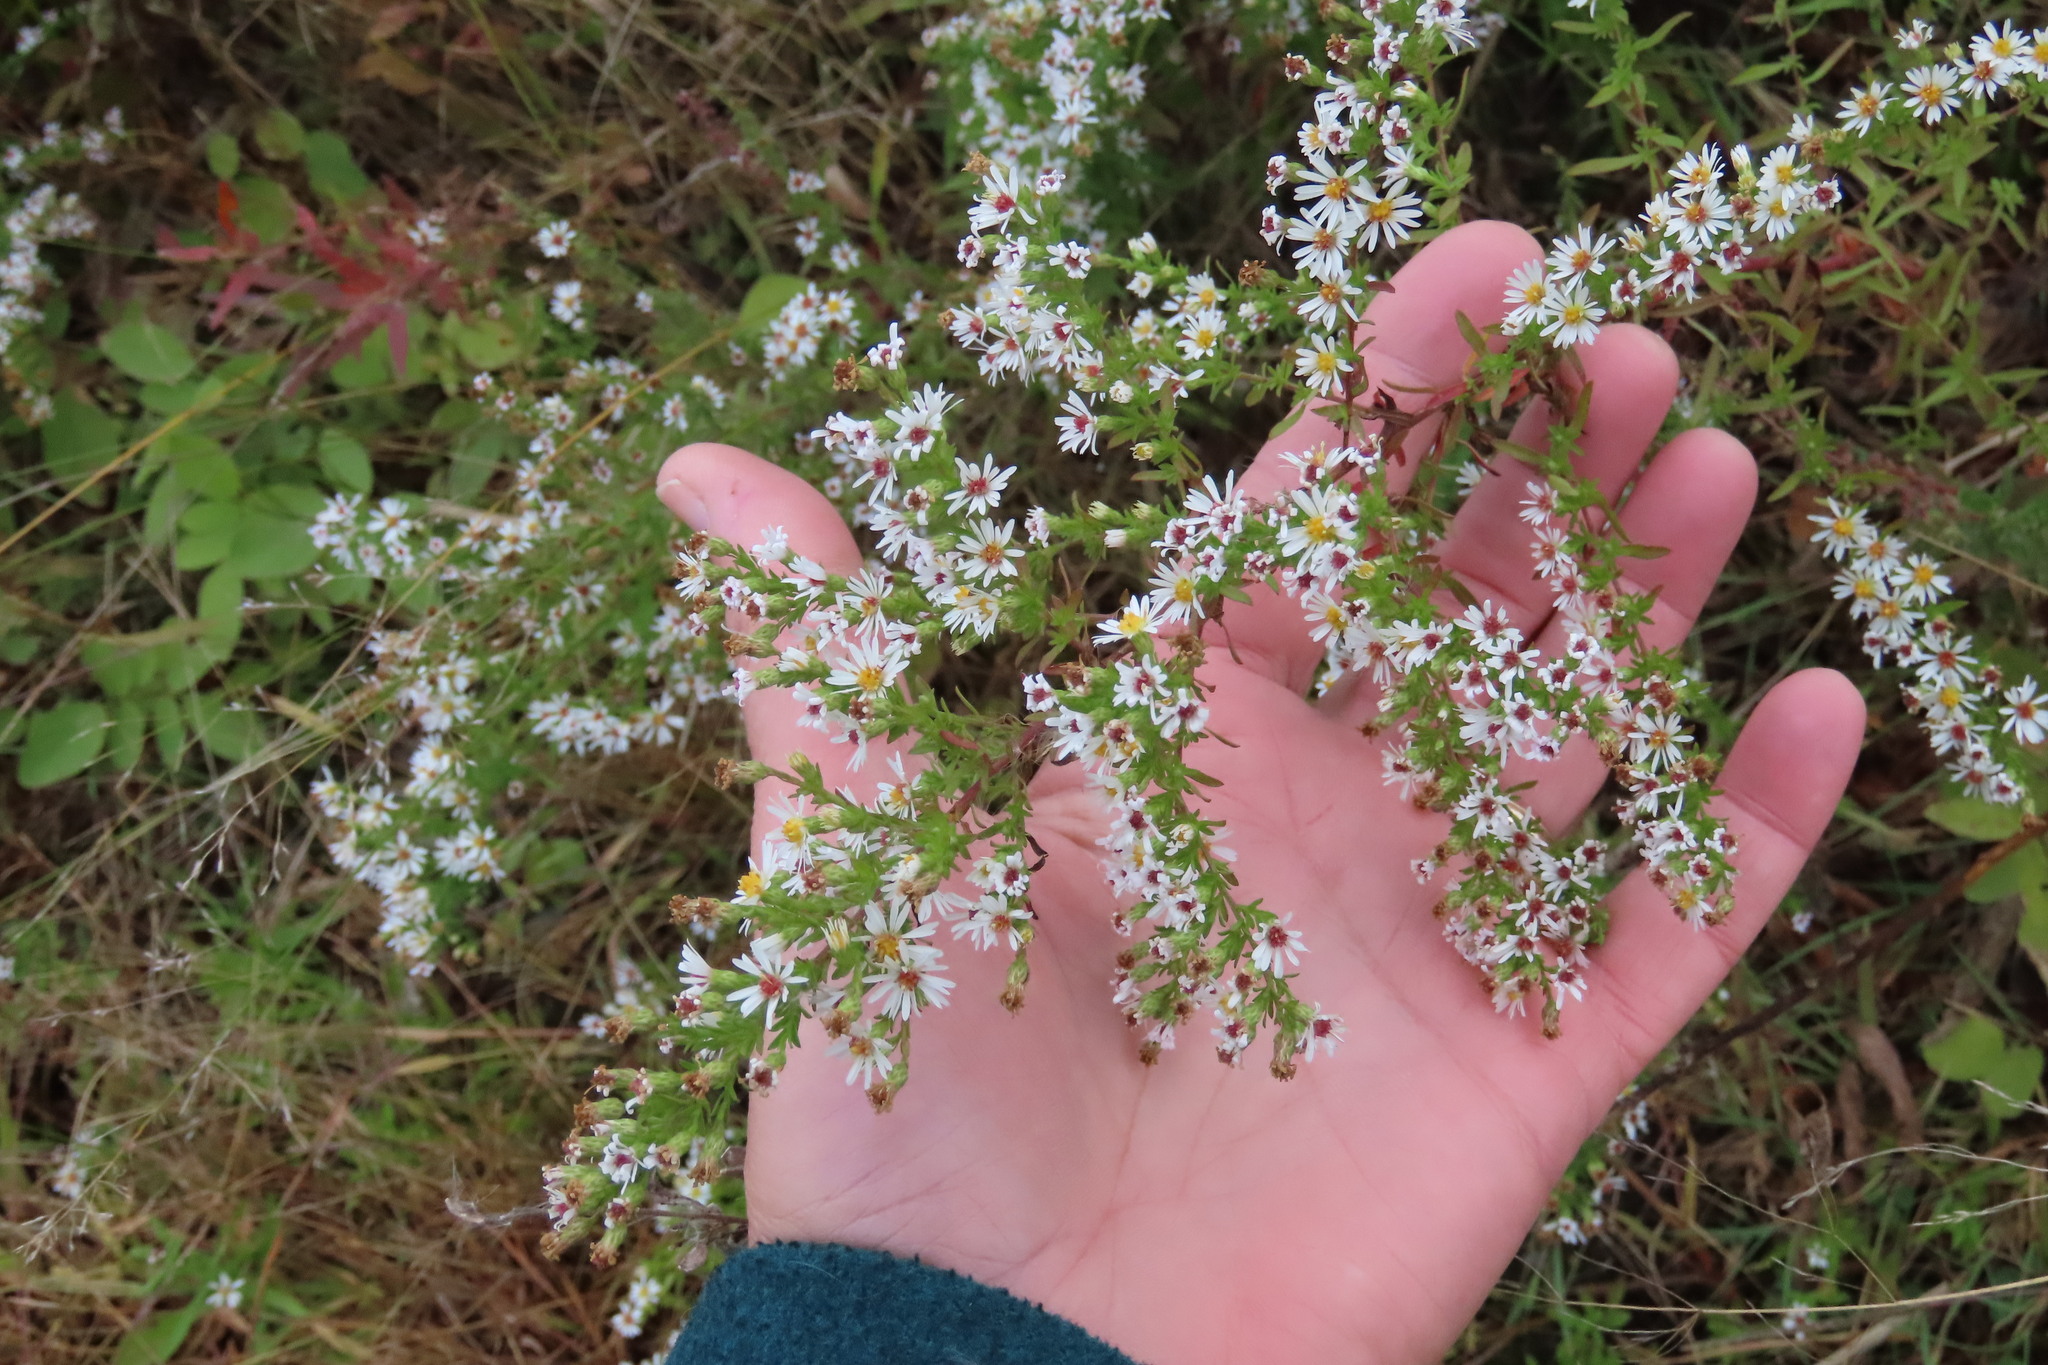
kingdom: Plantae
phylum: Tracheophyta
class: Magnoliopsida
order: Asterales
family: Asteraceae
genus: Symphyotrichum
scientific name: Symphyotrichum racemosum
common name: Small white aster
